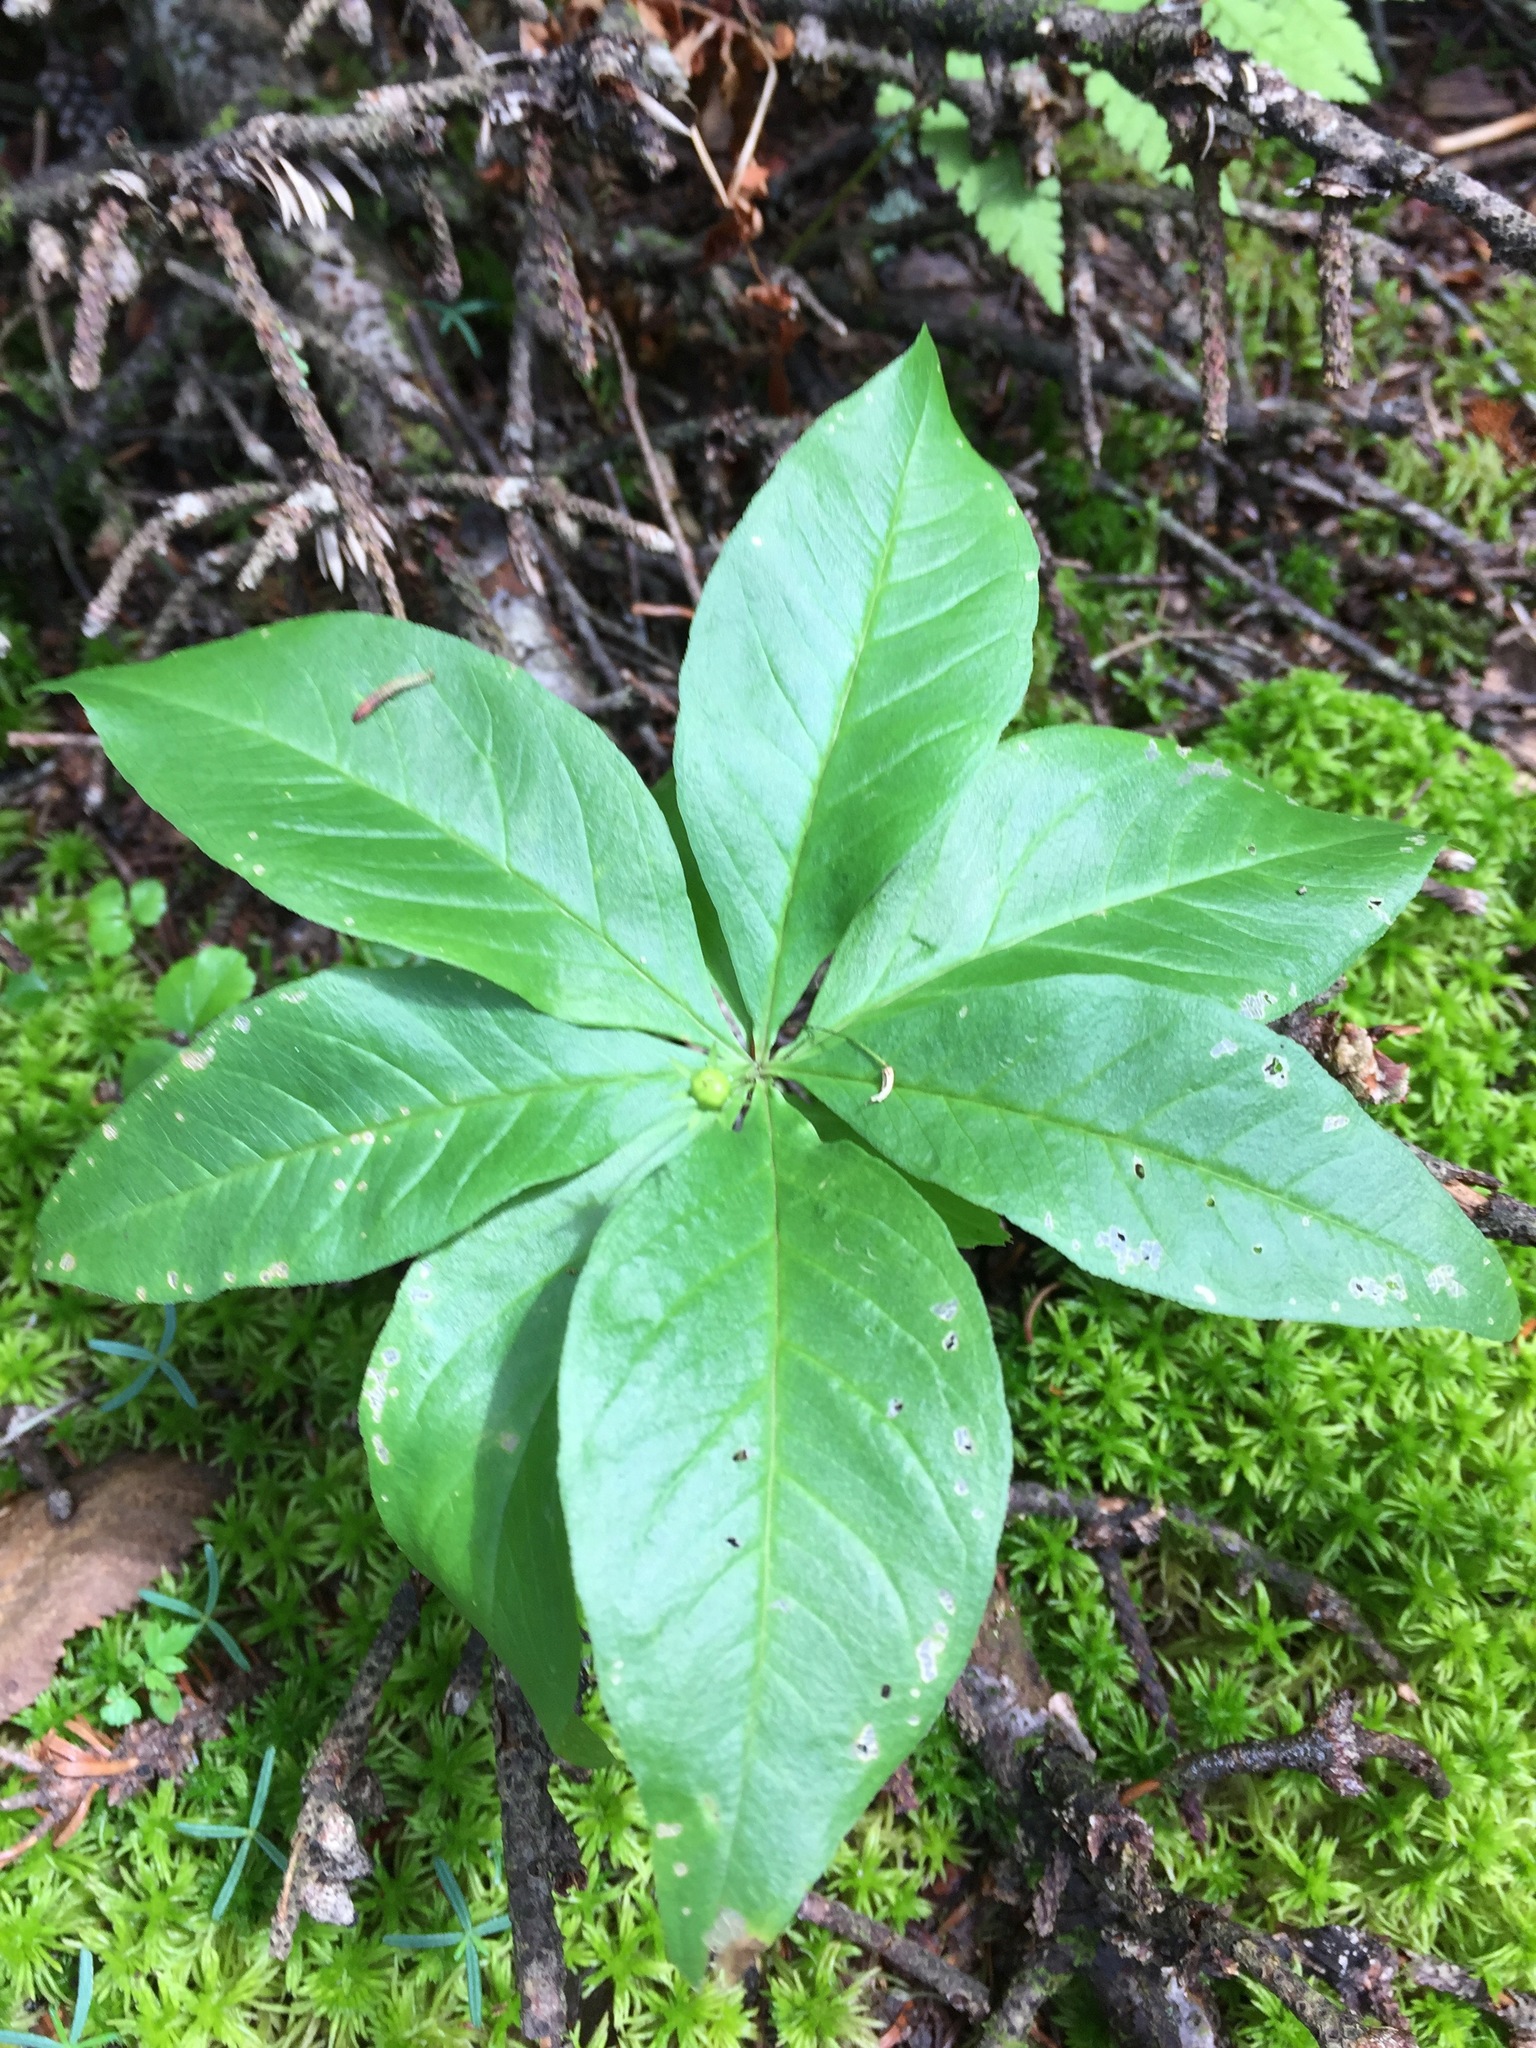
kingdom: Plantae
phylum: Tracheophyta
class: Magnoliopsida
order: Ericales
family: Primulaceae
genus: Lysimachia
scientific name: Lysimachia borealis
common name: American starflower
